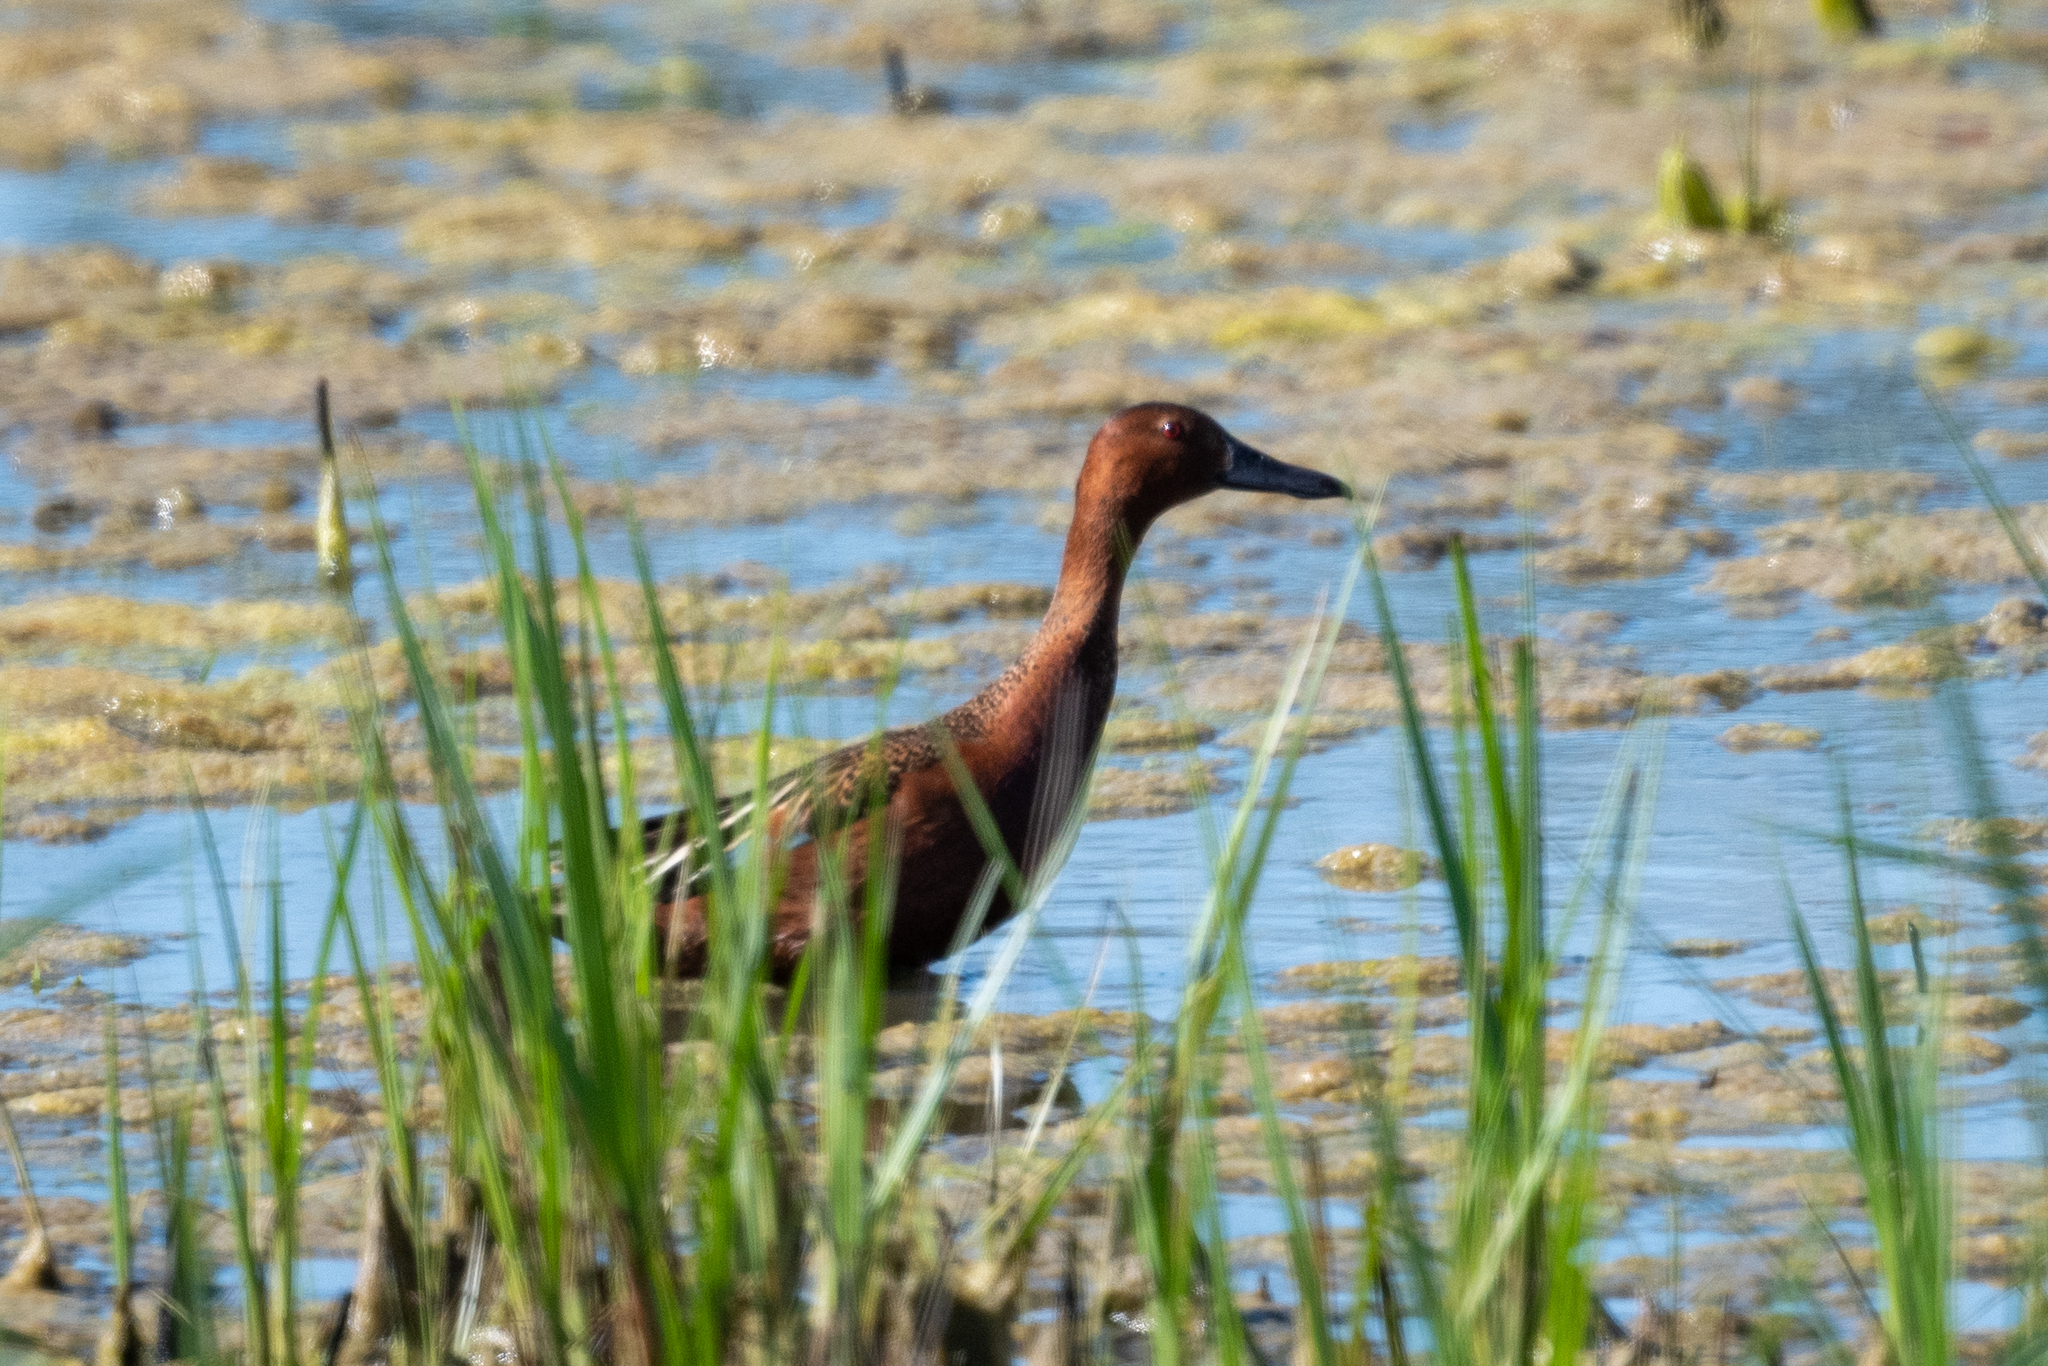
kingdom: Animalia
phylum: Chordata
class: Aves
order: Anseriformes
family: Anatidae
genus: Spatula
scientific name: Spatula cyanoptera
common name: Cinnamon teal
